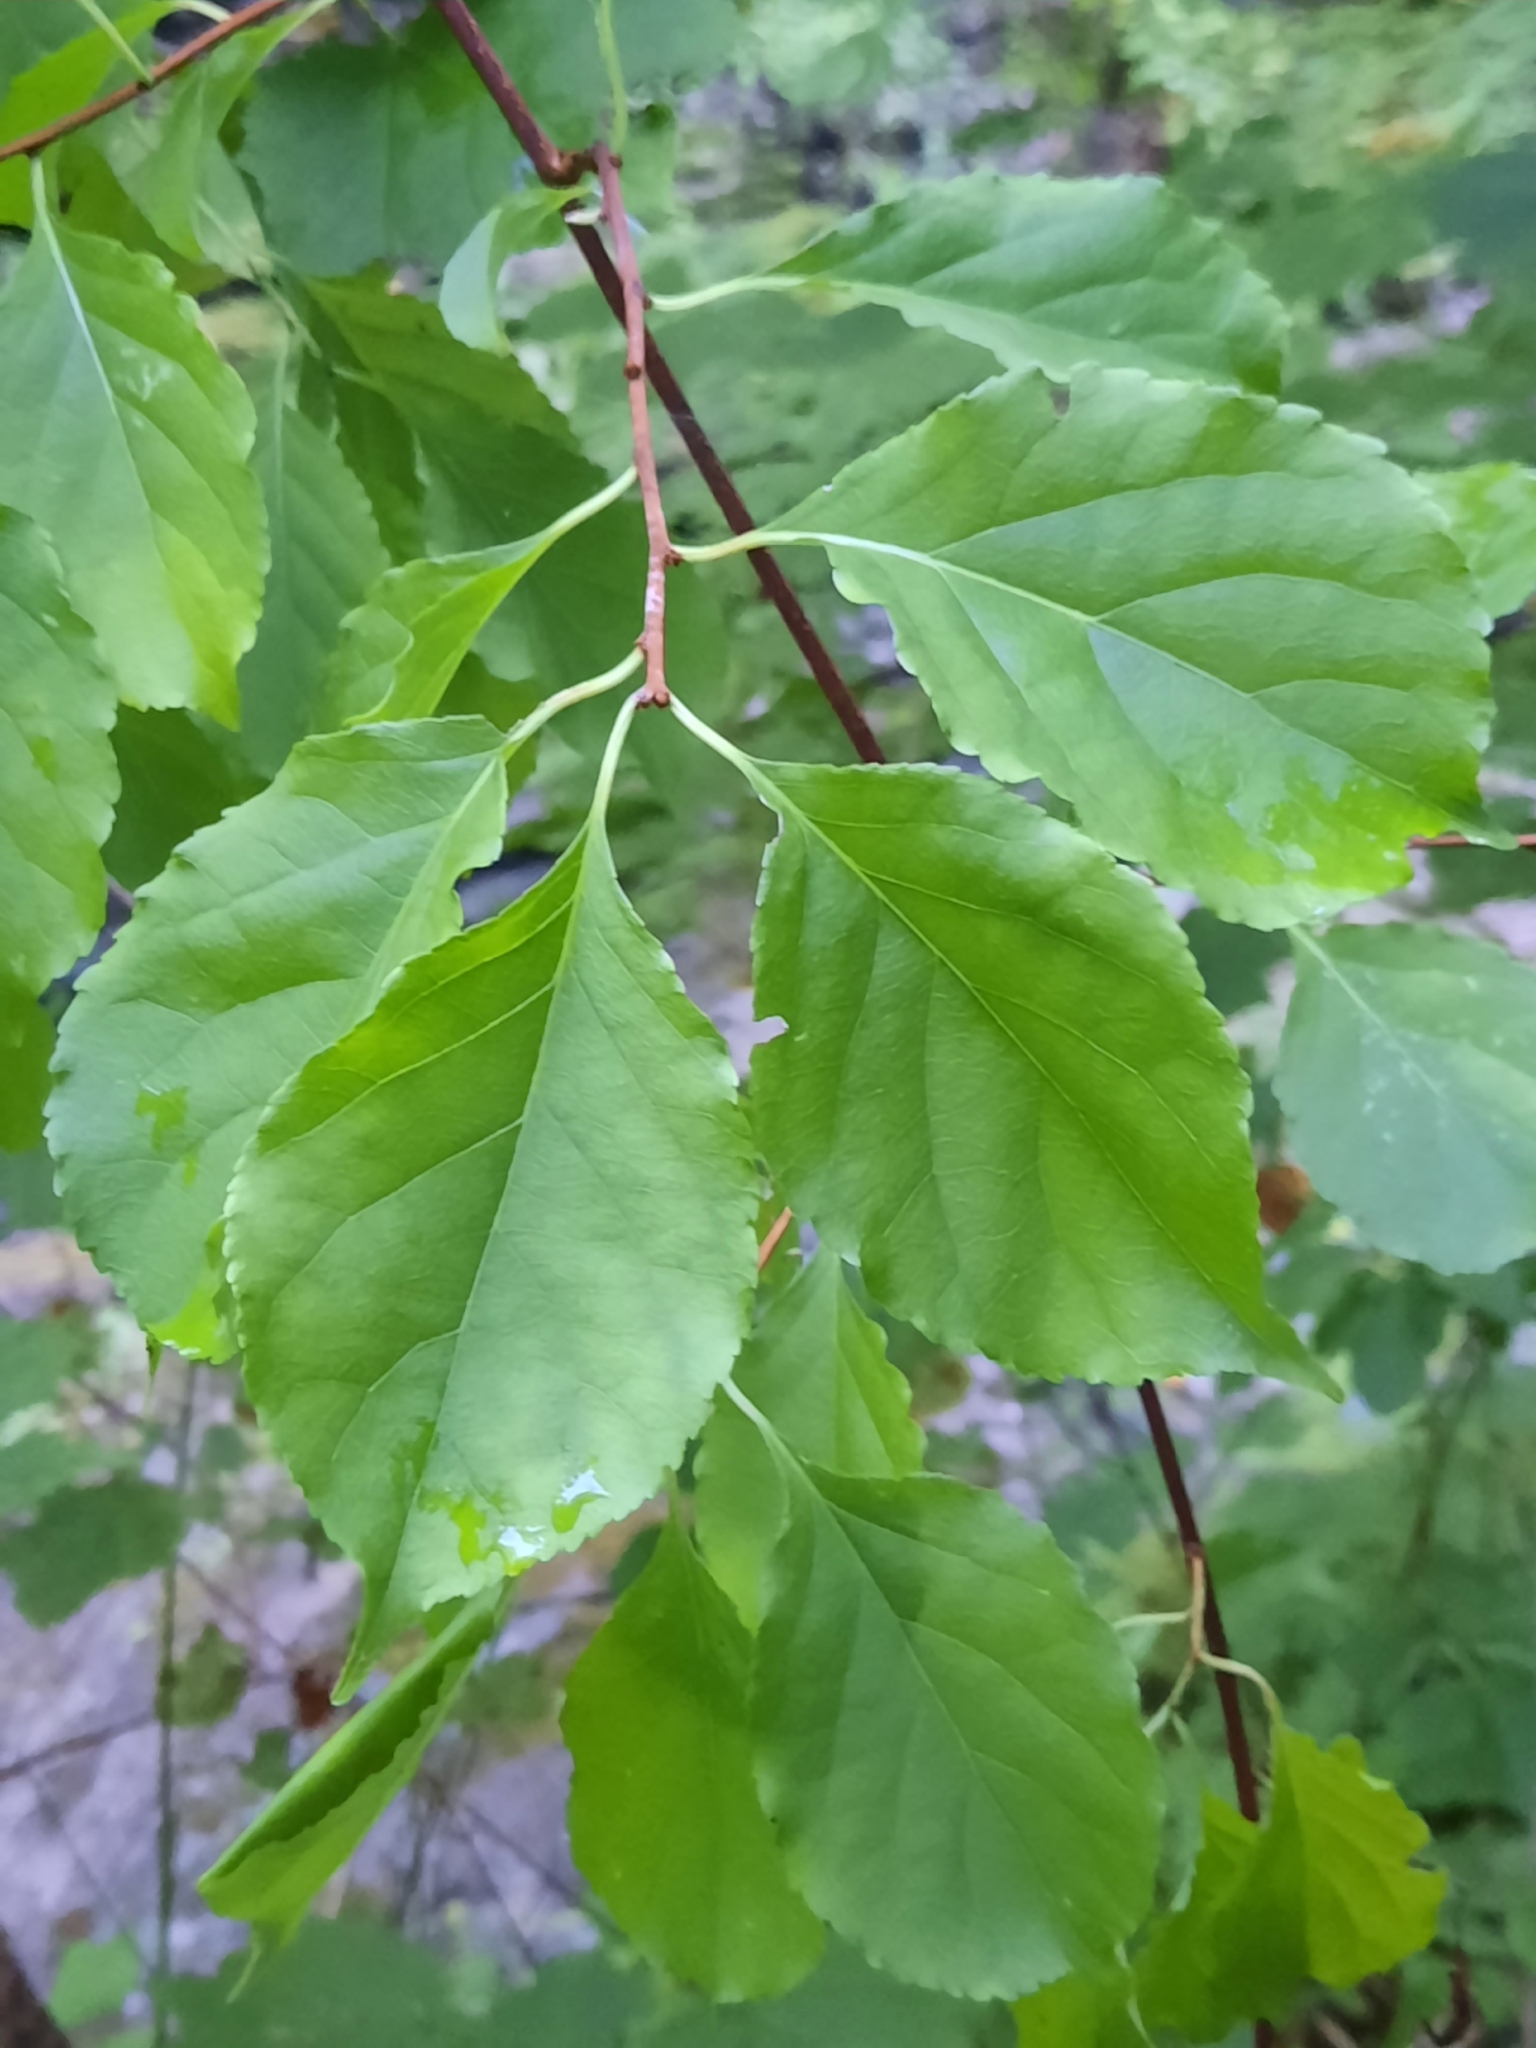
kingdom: Plantae
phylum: Tracheophyta
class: Magnoliopsida
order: Celastrales
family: Celastraceae
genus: Celastrus
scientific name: Celastrus orbiculatus
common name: Oriental bittersweet
